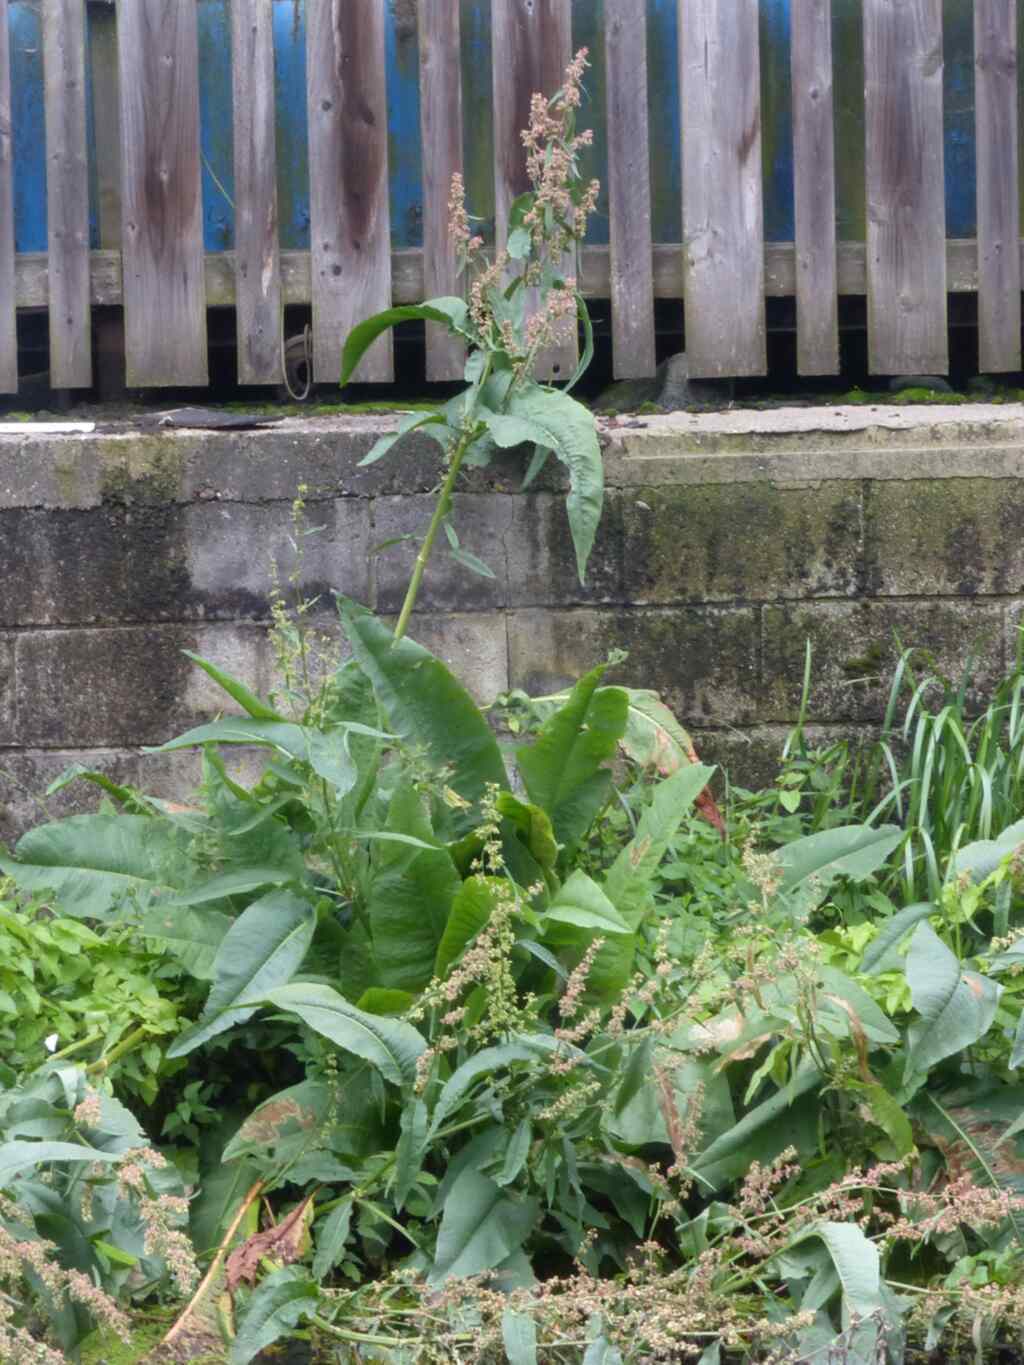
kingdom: Plantae
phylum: Tracheophyta
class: Magnoliopsida
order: Caryophyllales
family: Polygonaceae
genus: Rumex
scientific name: Rumex hydrolapathum
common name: Water dock
